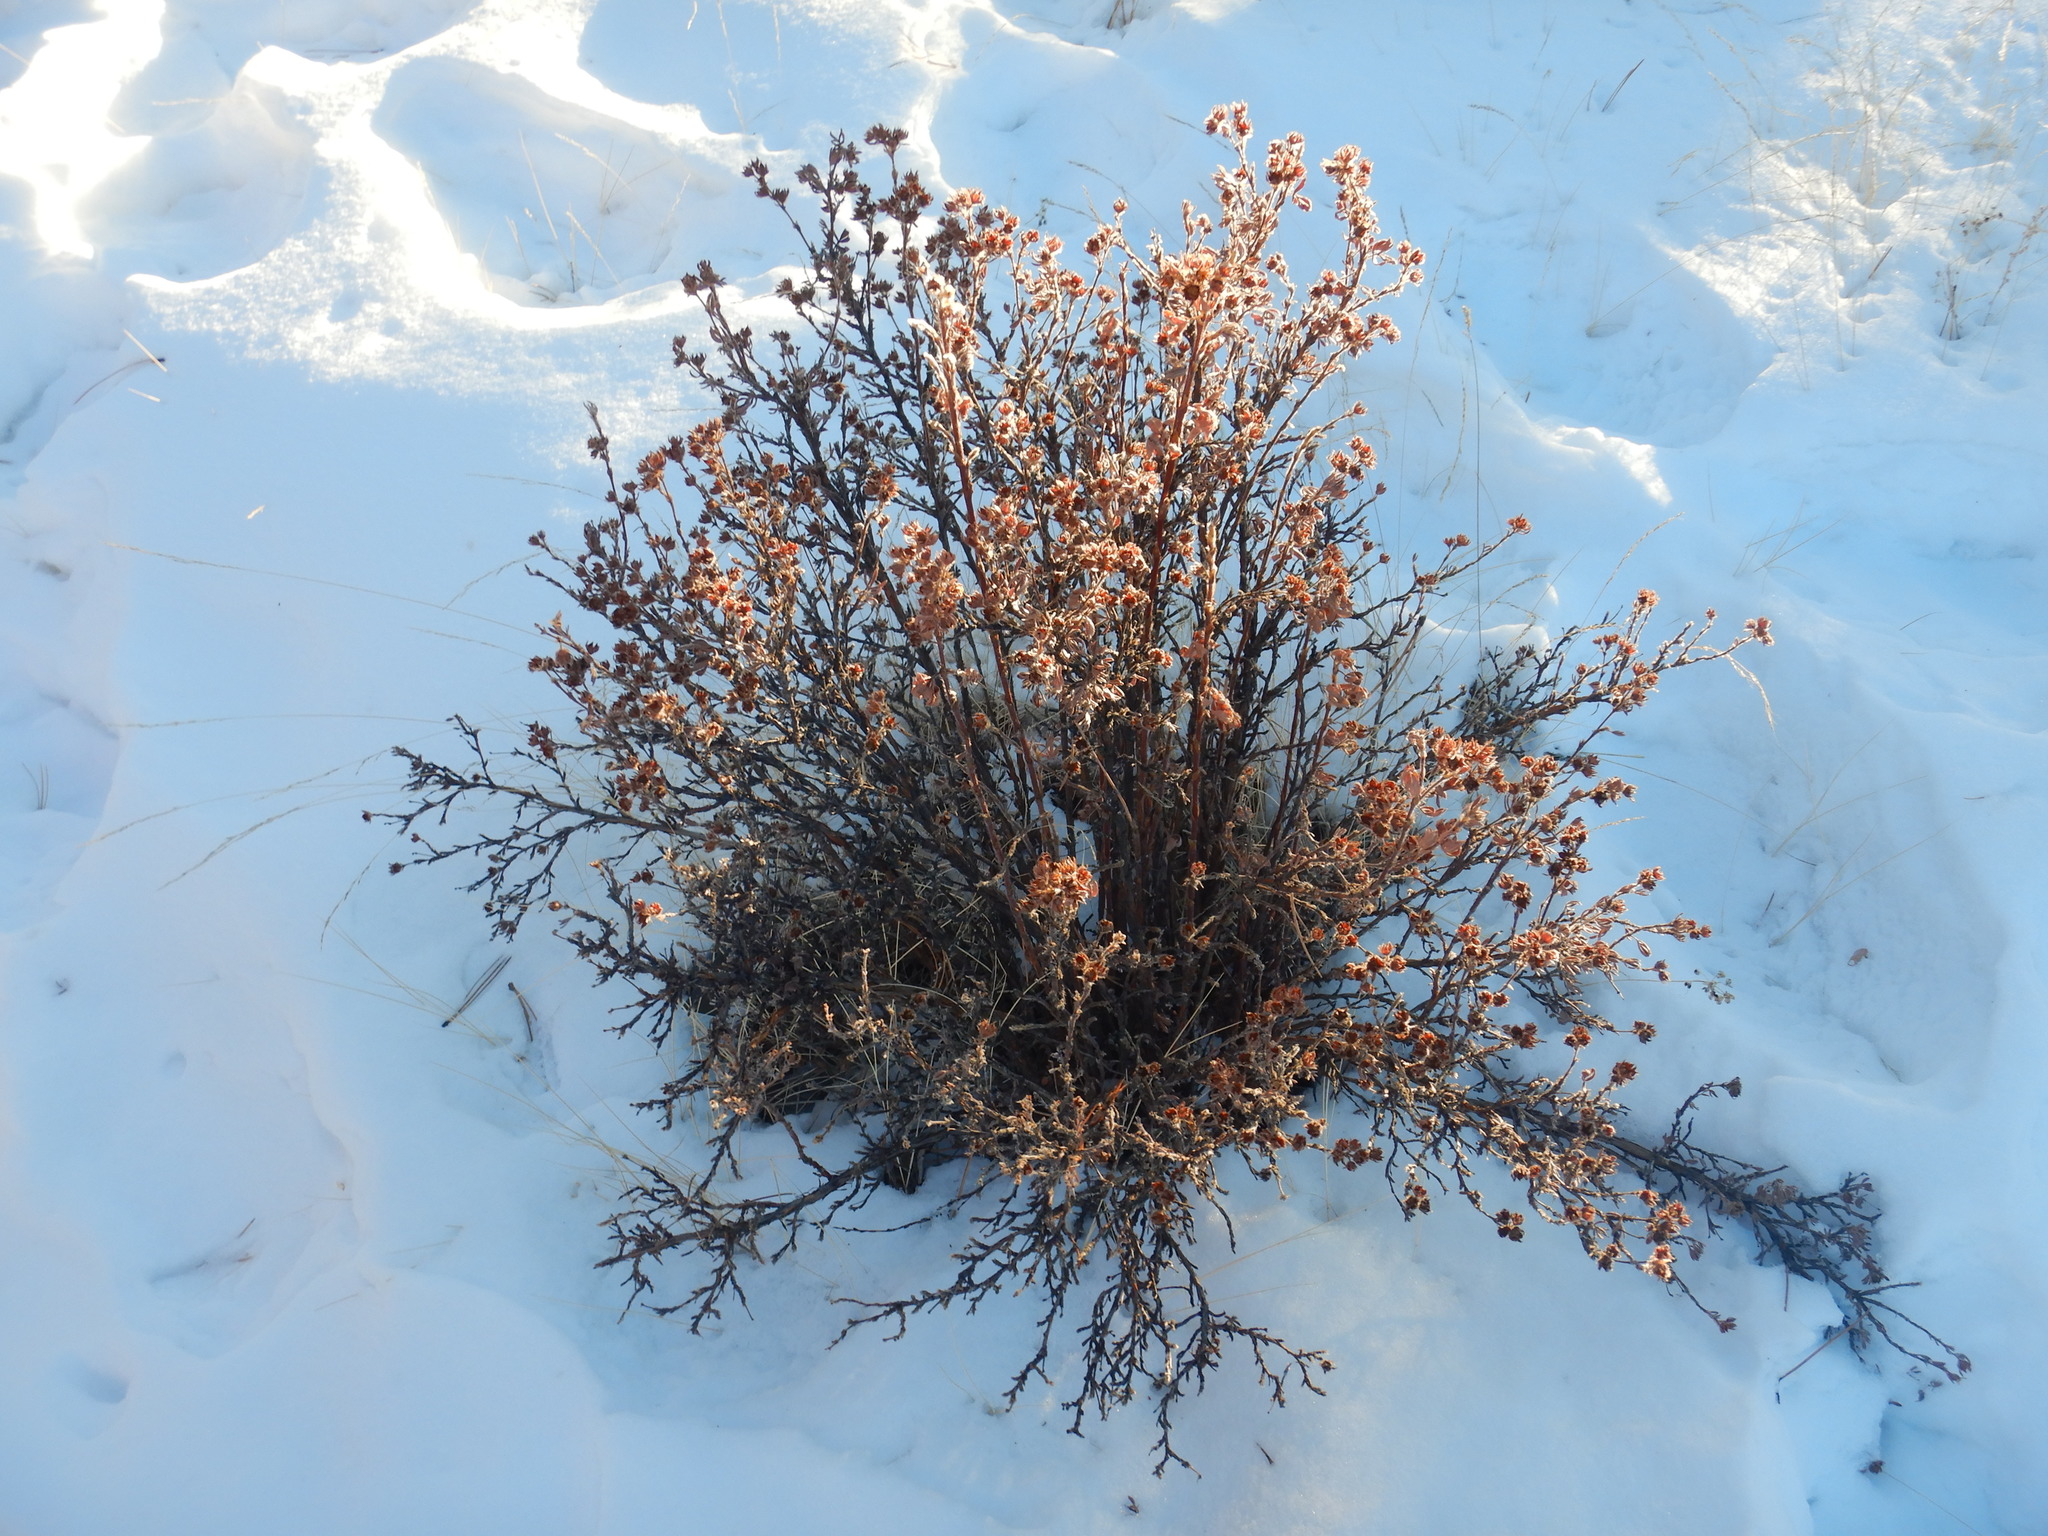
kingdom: Plantae
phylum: Tracheophyta
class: Magnoliopsida
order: Rosales
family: Rosaceae
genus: Dasiphora
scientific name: Dasiphora fruticosa
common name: Shrubby cinquefoil
